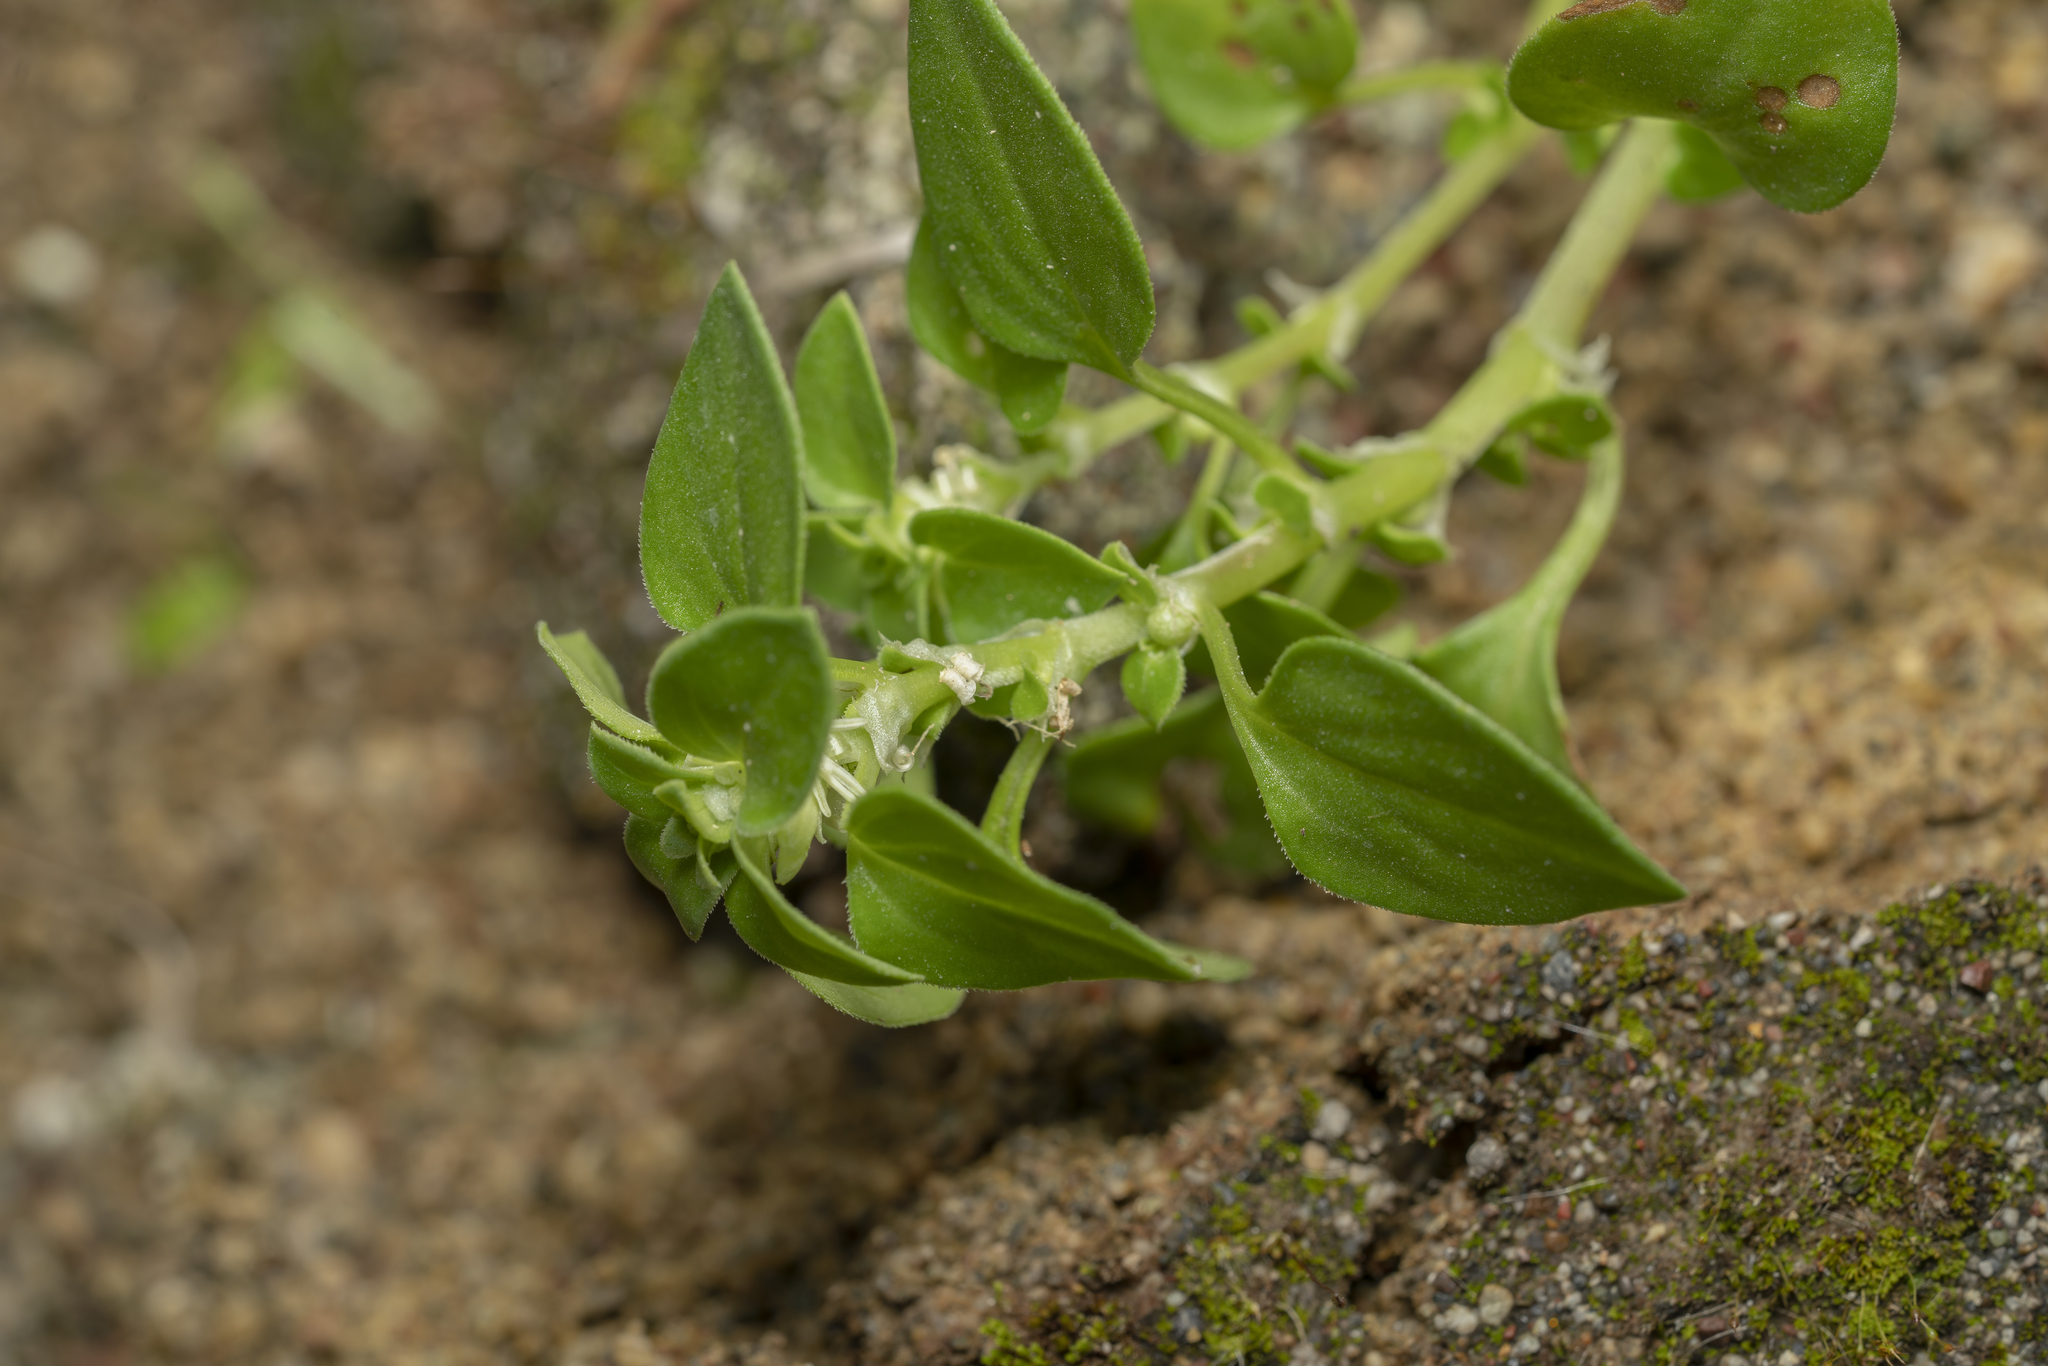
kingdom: Plantae
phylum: Tracheophyta
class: Magnoliopsida
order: Gentianales
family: Rubiaceae
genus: Theligonum
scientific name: Theligonum cynocrambe
